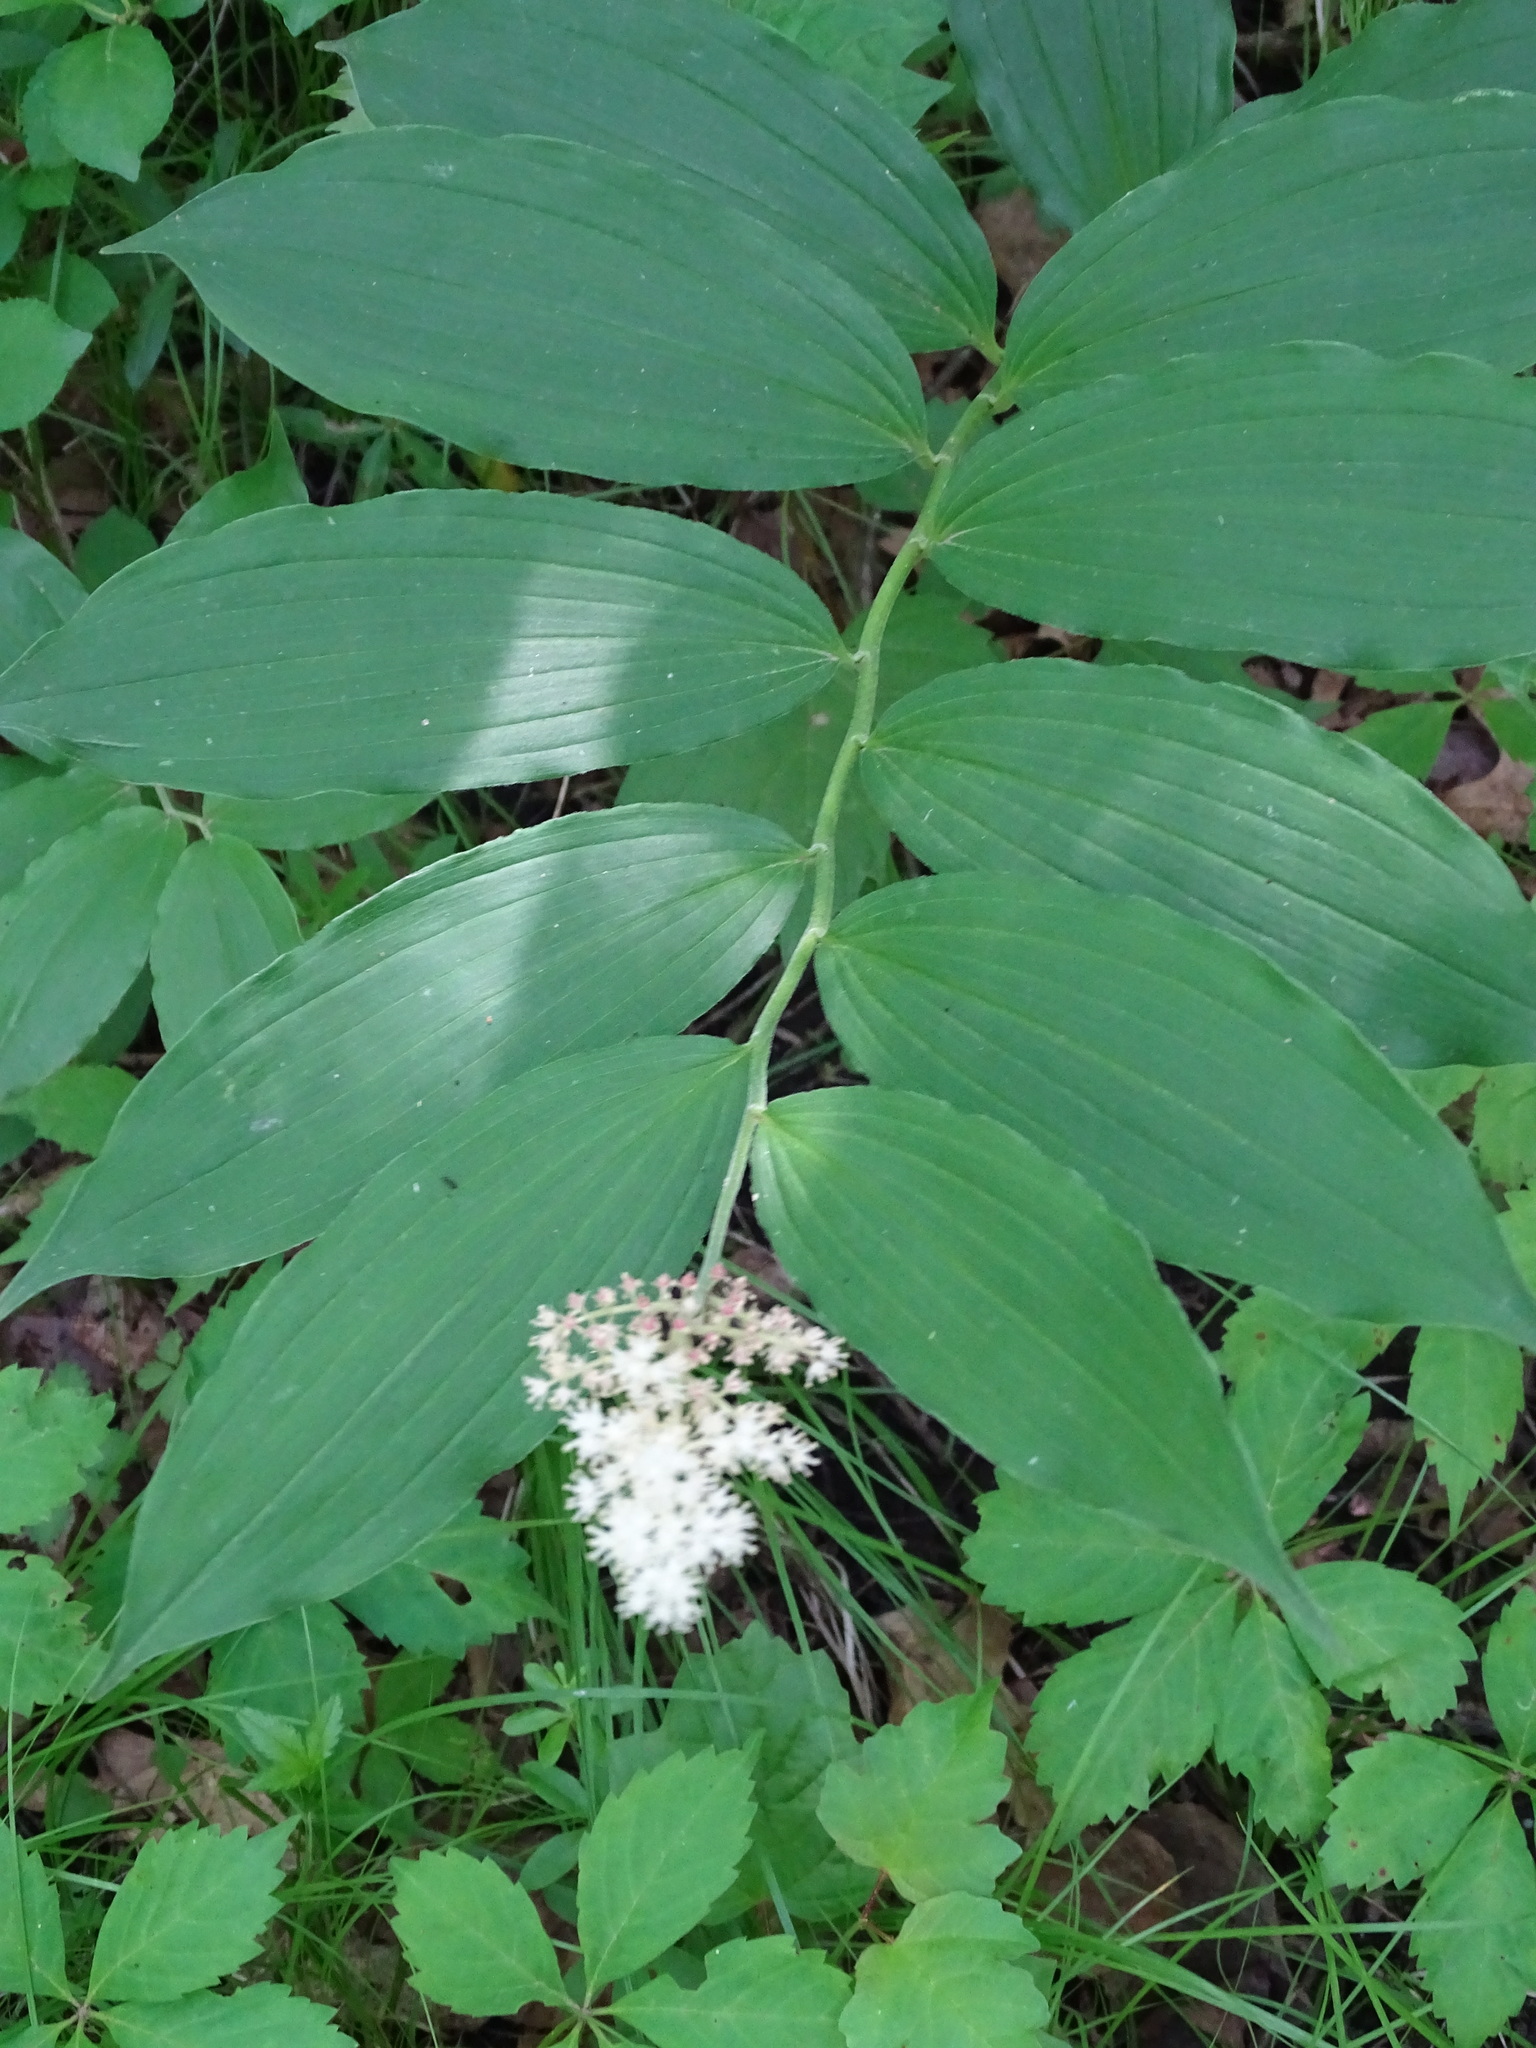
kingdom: Plantae
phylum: Tracheophyta
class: Liliopsida
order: Asparagales
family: Asparagaceae
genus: Maianthemum
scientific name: Maianthemum racemosum
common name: False spikenard
